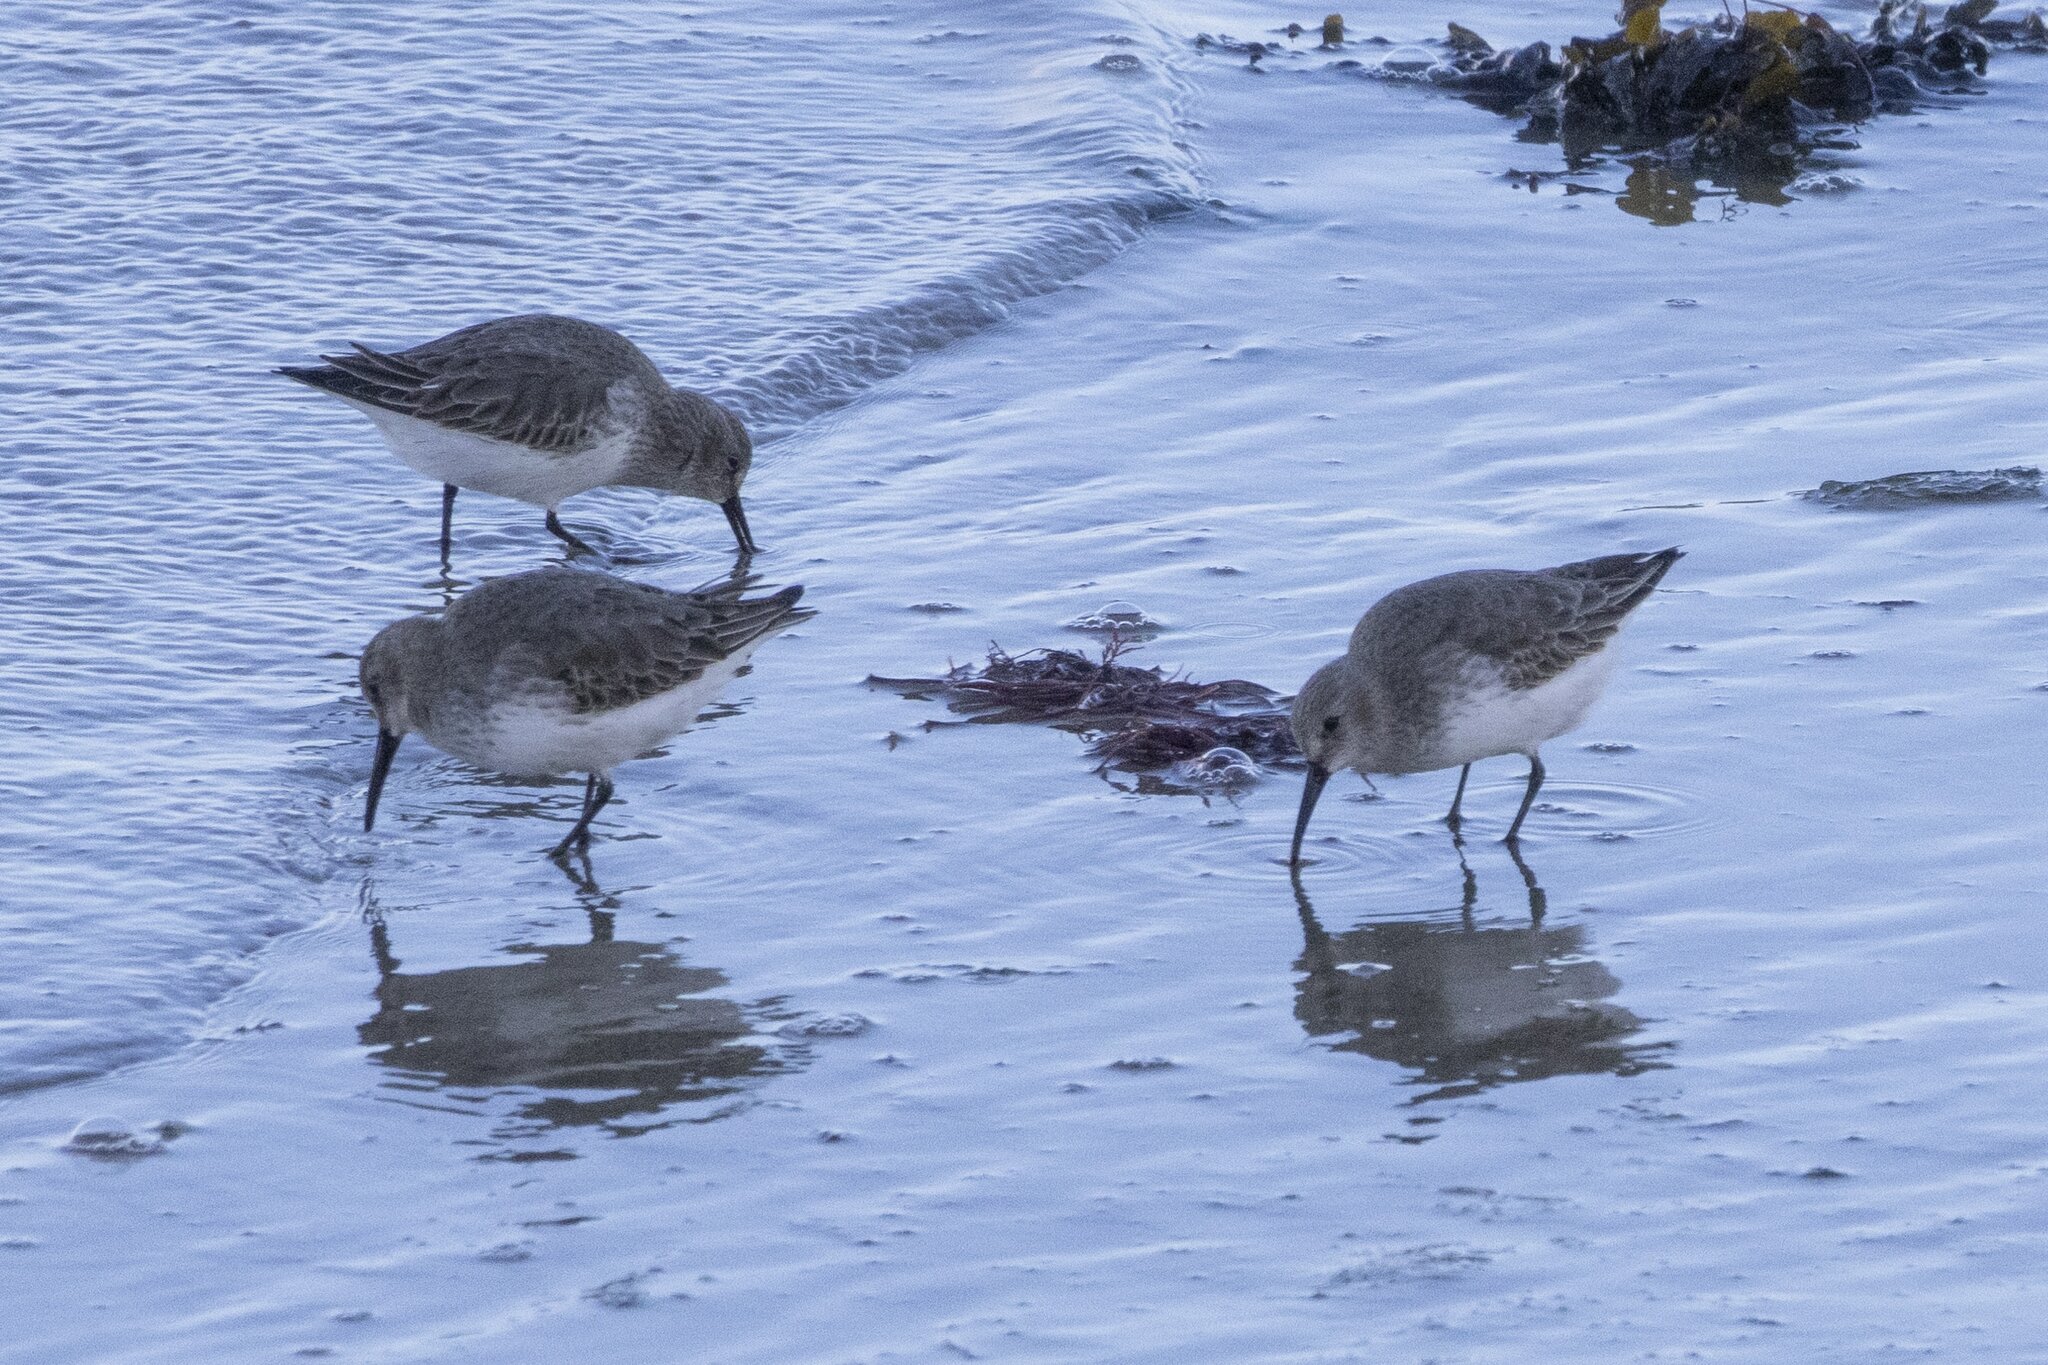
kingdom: Animalia
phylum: Chordata
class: Aves
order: Charadriiformes
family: Scolopacidae
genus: Calidris
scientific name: Calidris alpina
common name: Dunlin
